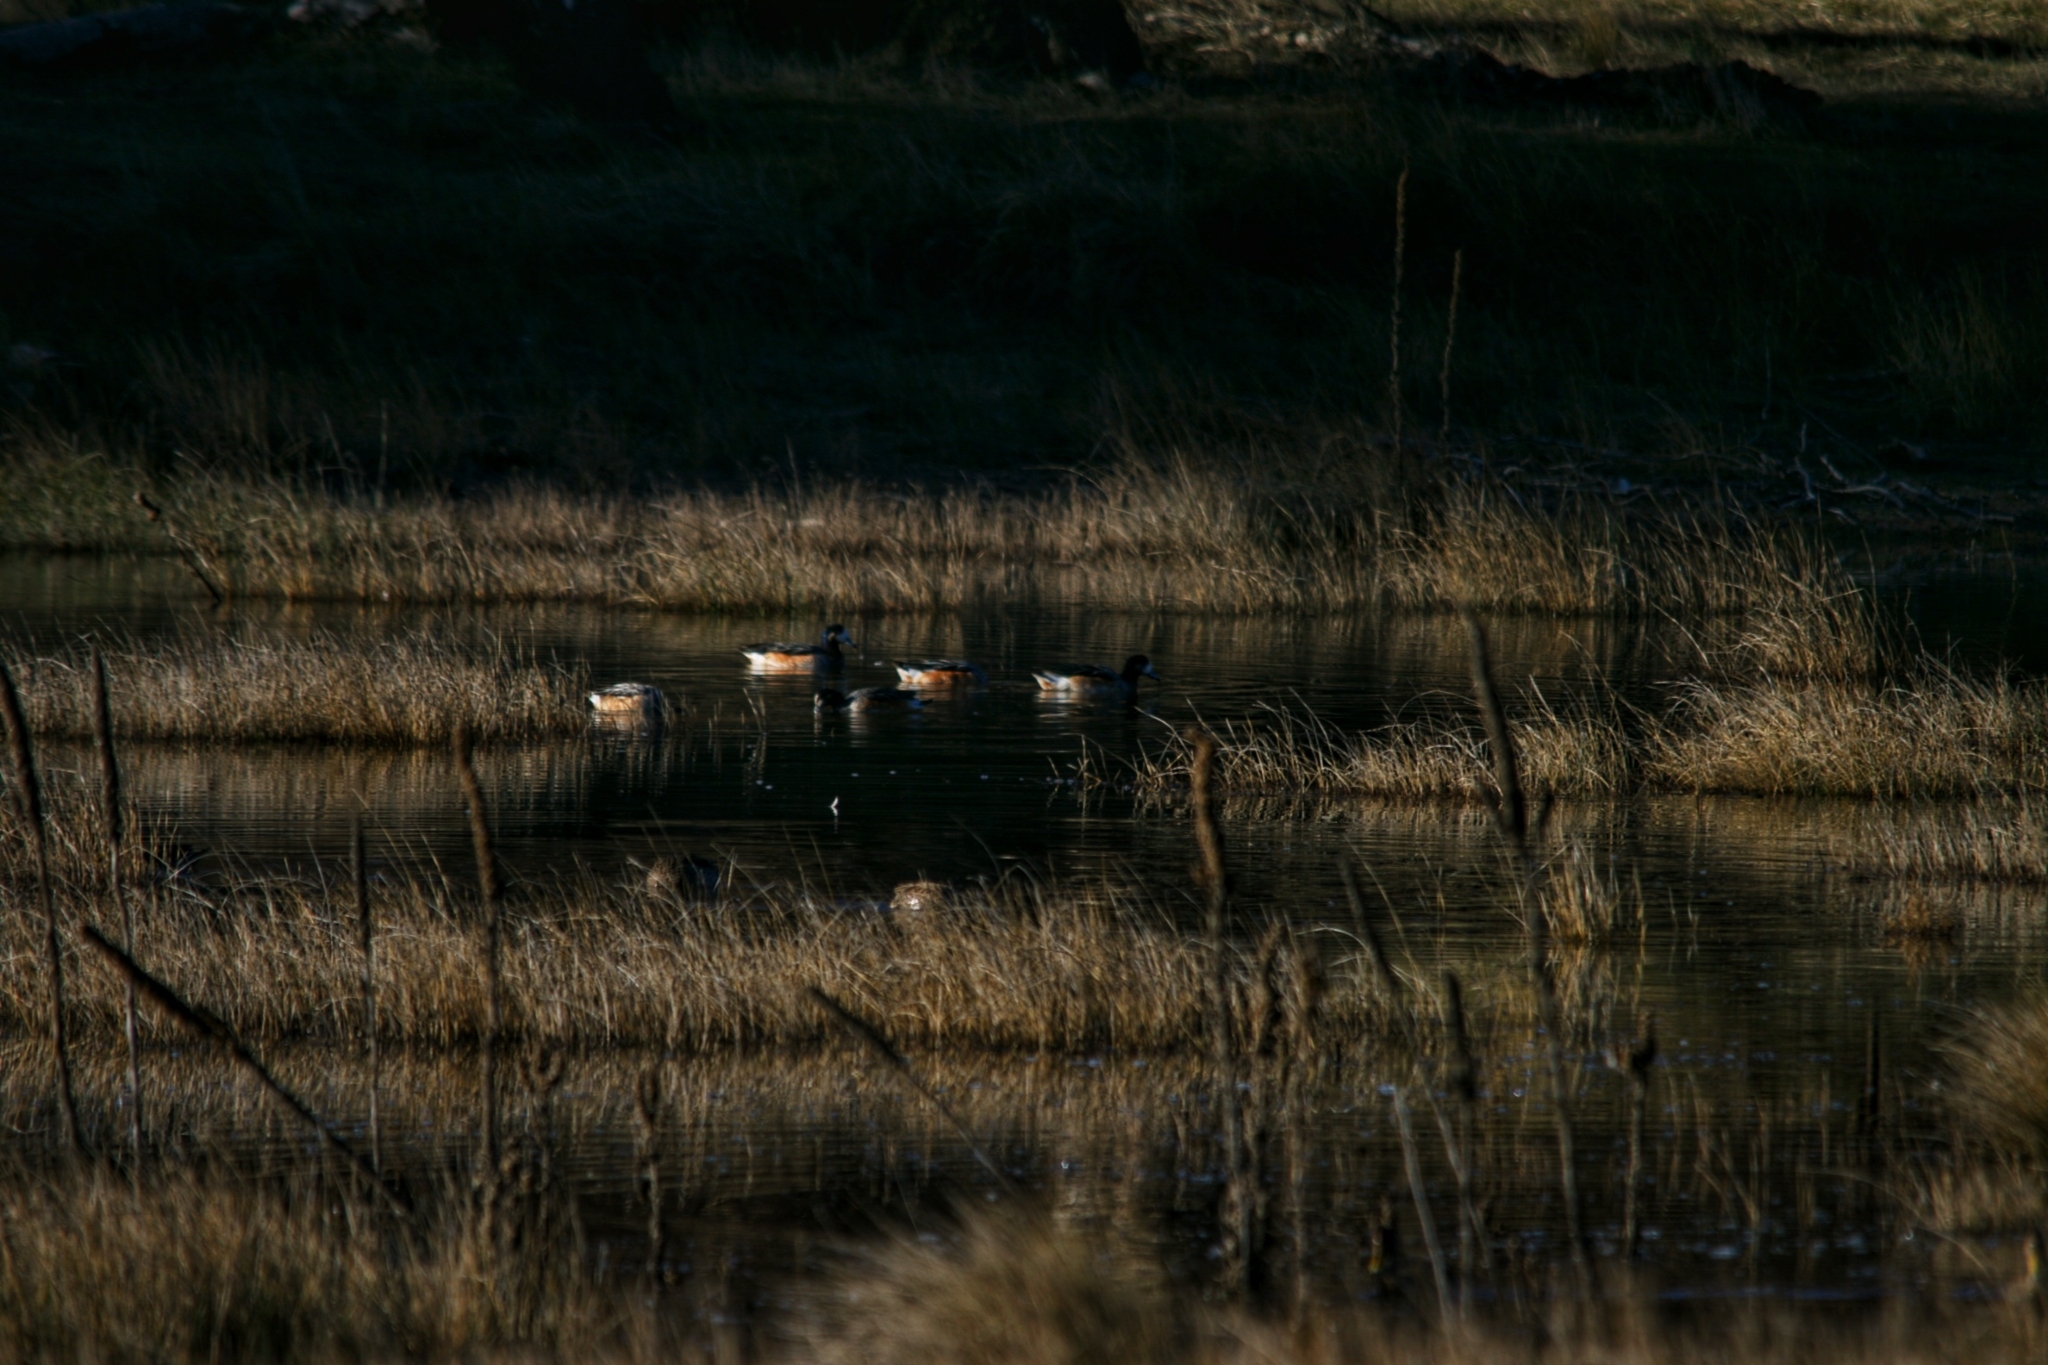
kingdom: Animalia
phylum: Chordata
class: Aves
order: Anseriformes
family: Anatidae
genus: Mareca
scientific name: Mareca sibilatrix
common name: Chiloe wigeon
